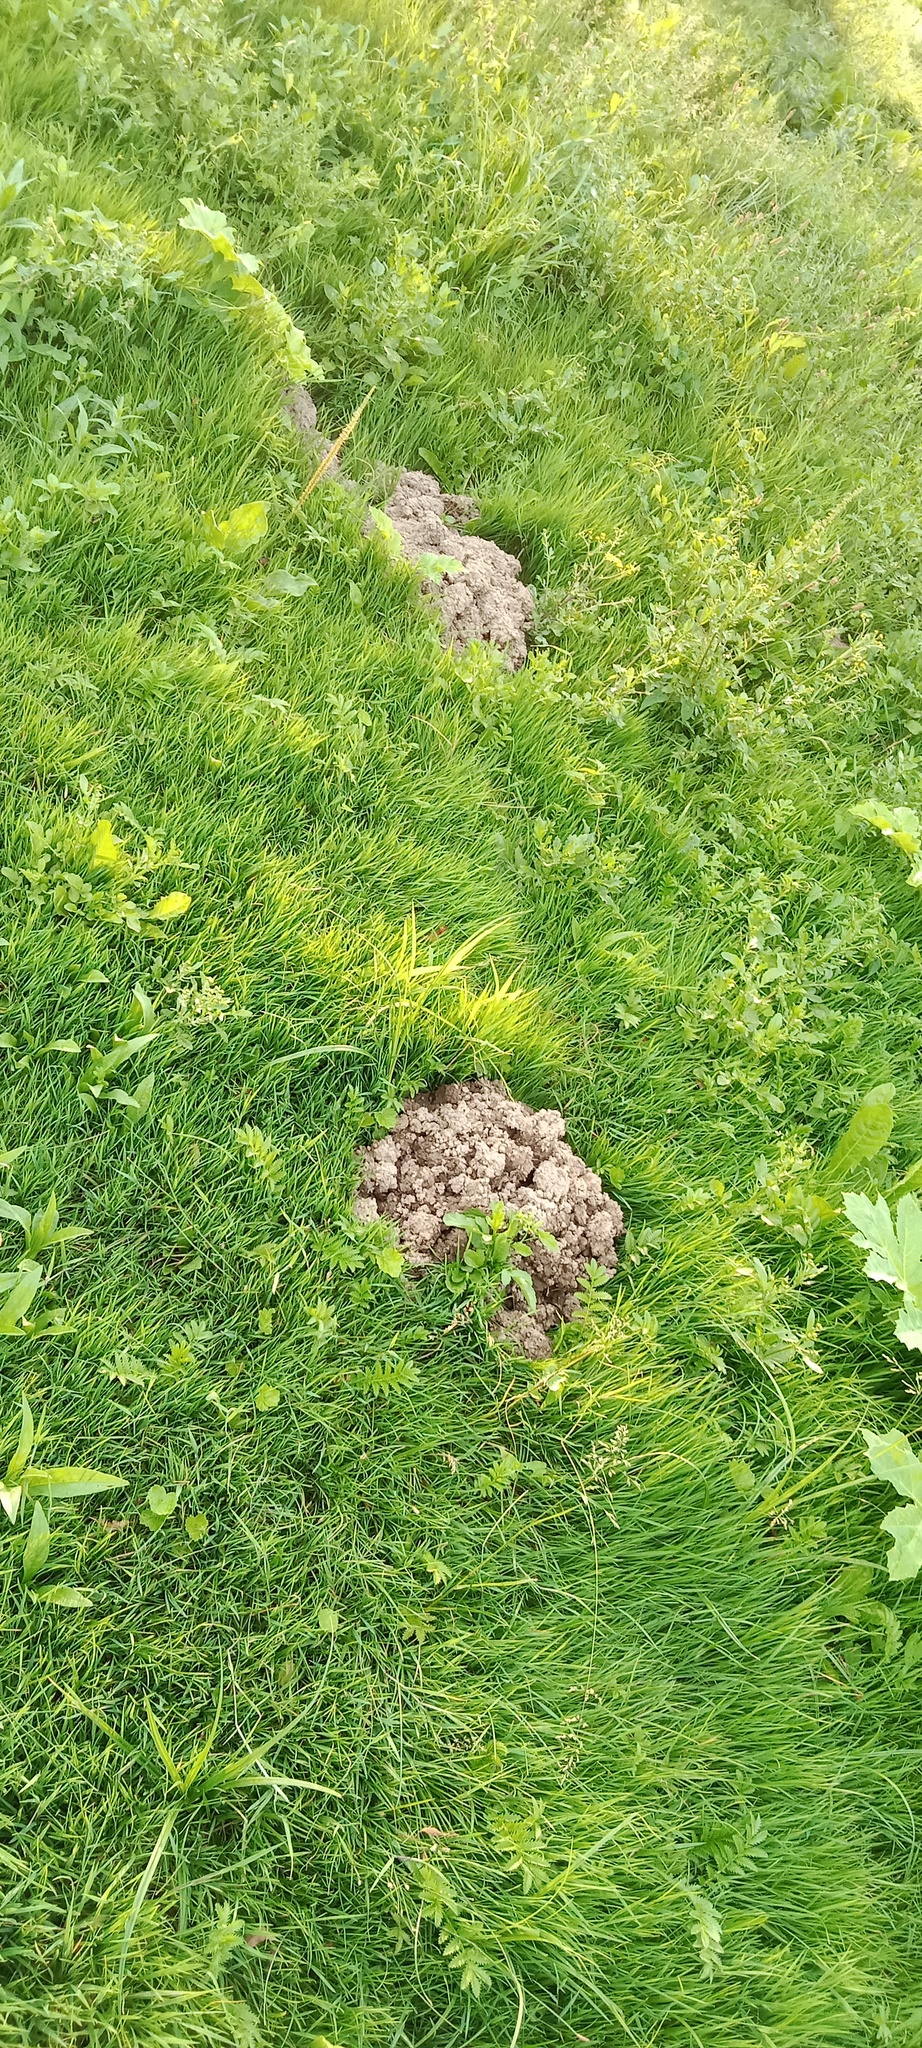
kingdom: Animalia
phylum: Chordata
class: Mammalia
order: Soricomorpha
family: Talpidae
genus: Talpa
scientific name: Talpa europaea
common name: European mole
